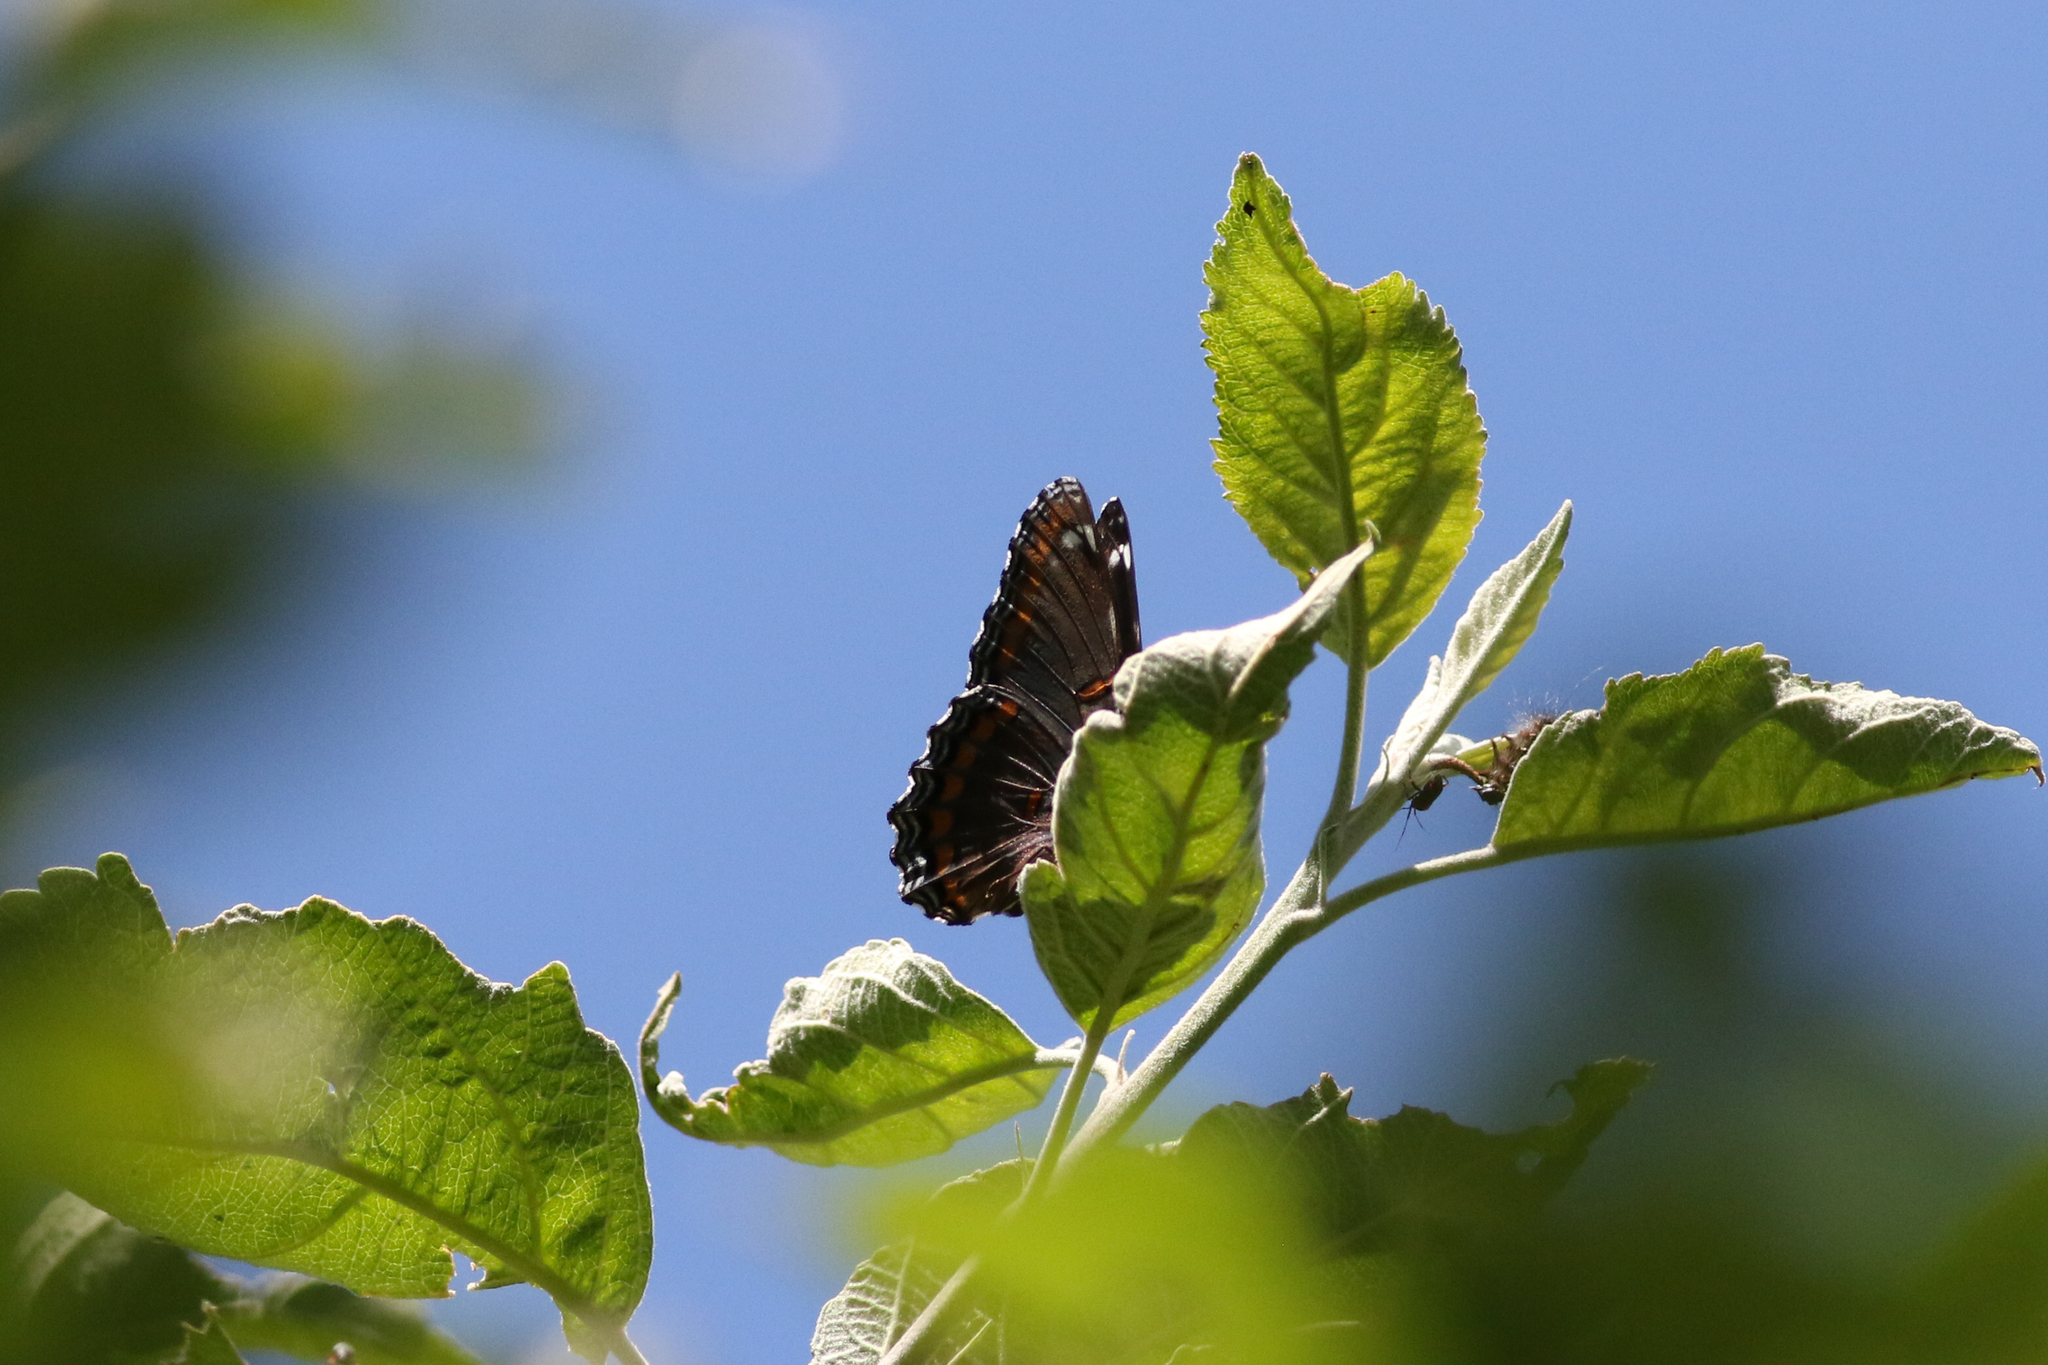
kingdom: Animalia
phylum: Arthropoda
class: Insecta
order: Lepidoptera
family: Nymphalidae
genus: Limenitis
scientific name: Limenitis astyanax
